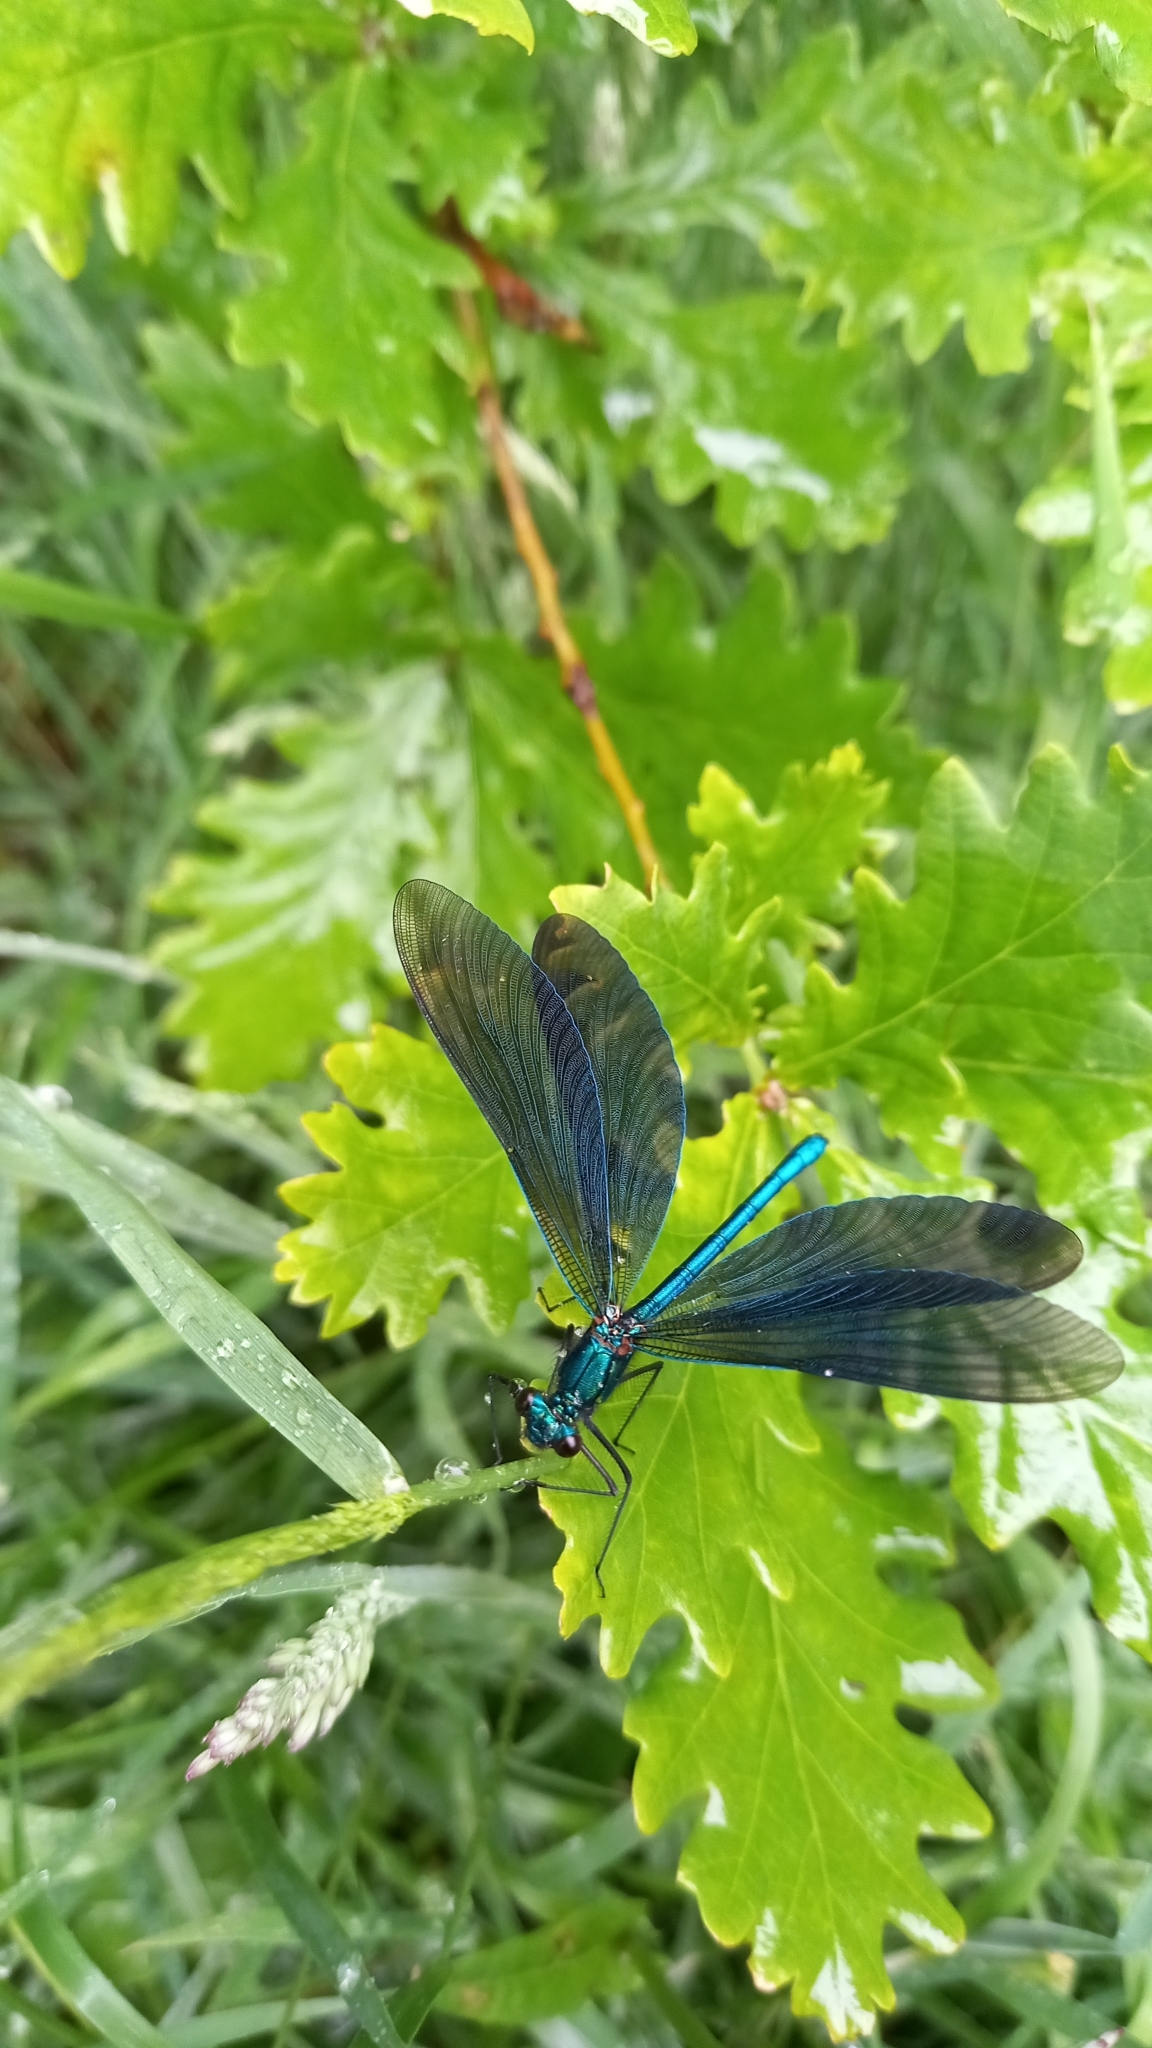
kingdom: Animalia
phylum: Arthropoda
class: Insecta
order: Odonata
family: Calopterygidae
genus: Calopteryx
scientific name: Calopteryx virgo
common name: Beautiful demoiselle
